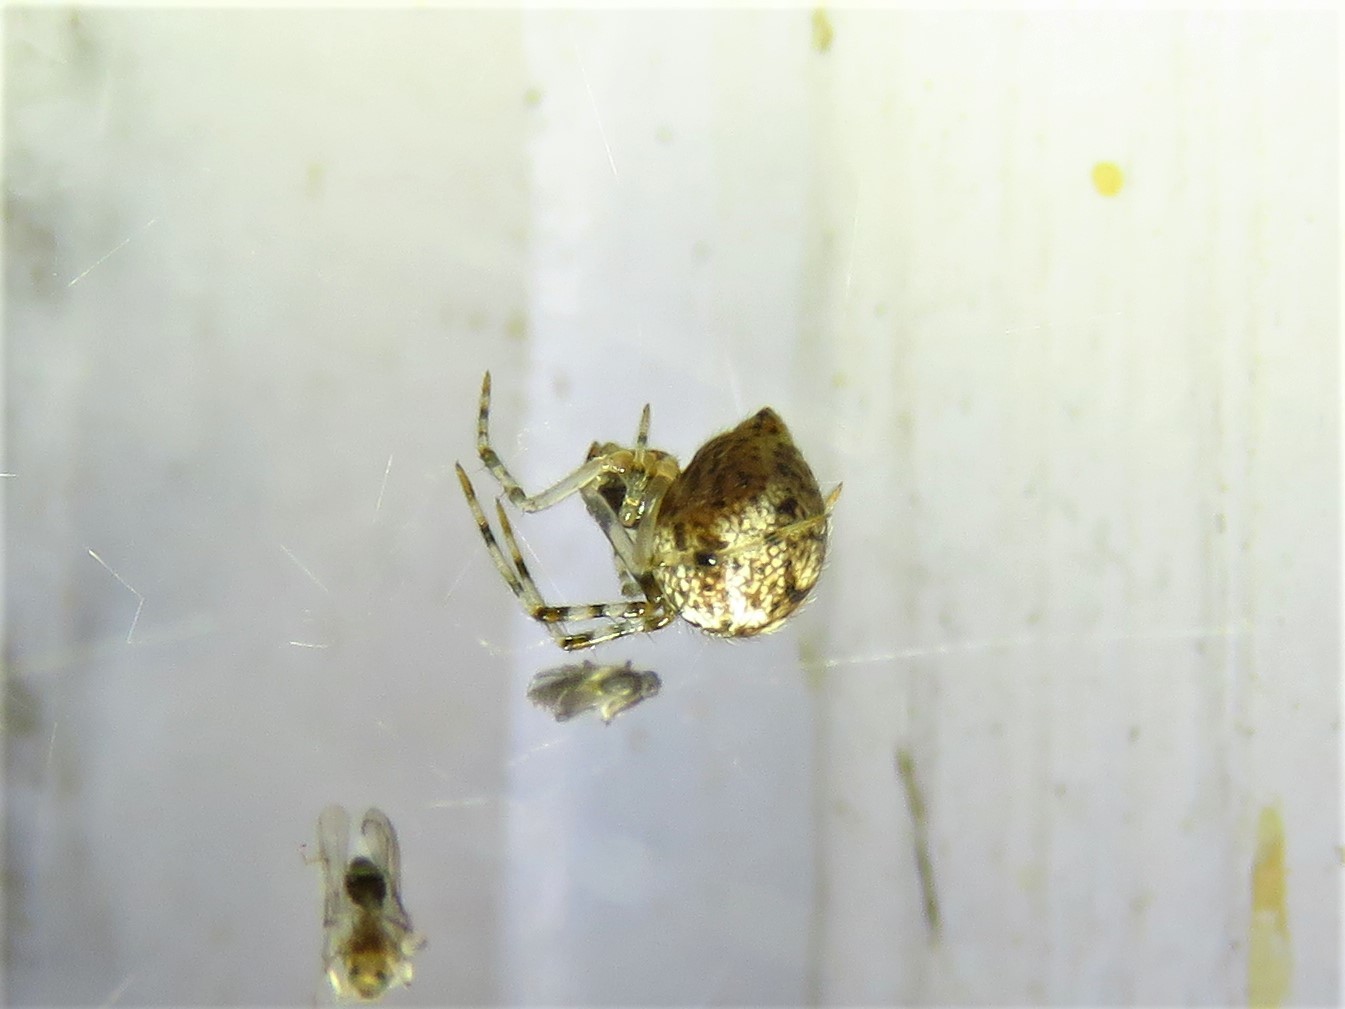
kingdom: Animalia
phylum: Arthropoda
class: Arachnida
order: Araneae
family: Theridiidae
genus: Parasteatoda
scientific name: Parasteatoda tepidariorum
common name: Common house spider
